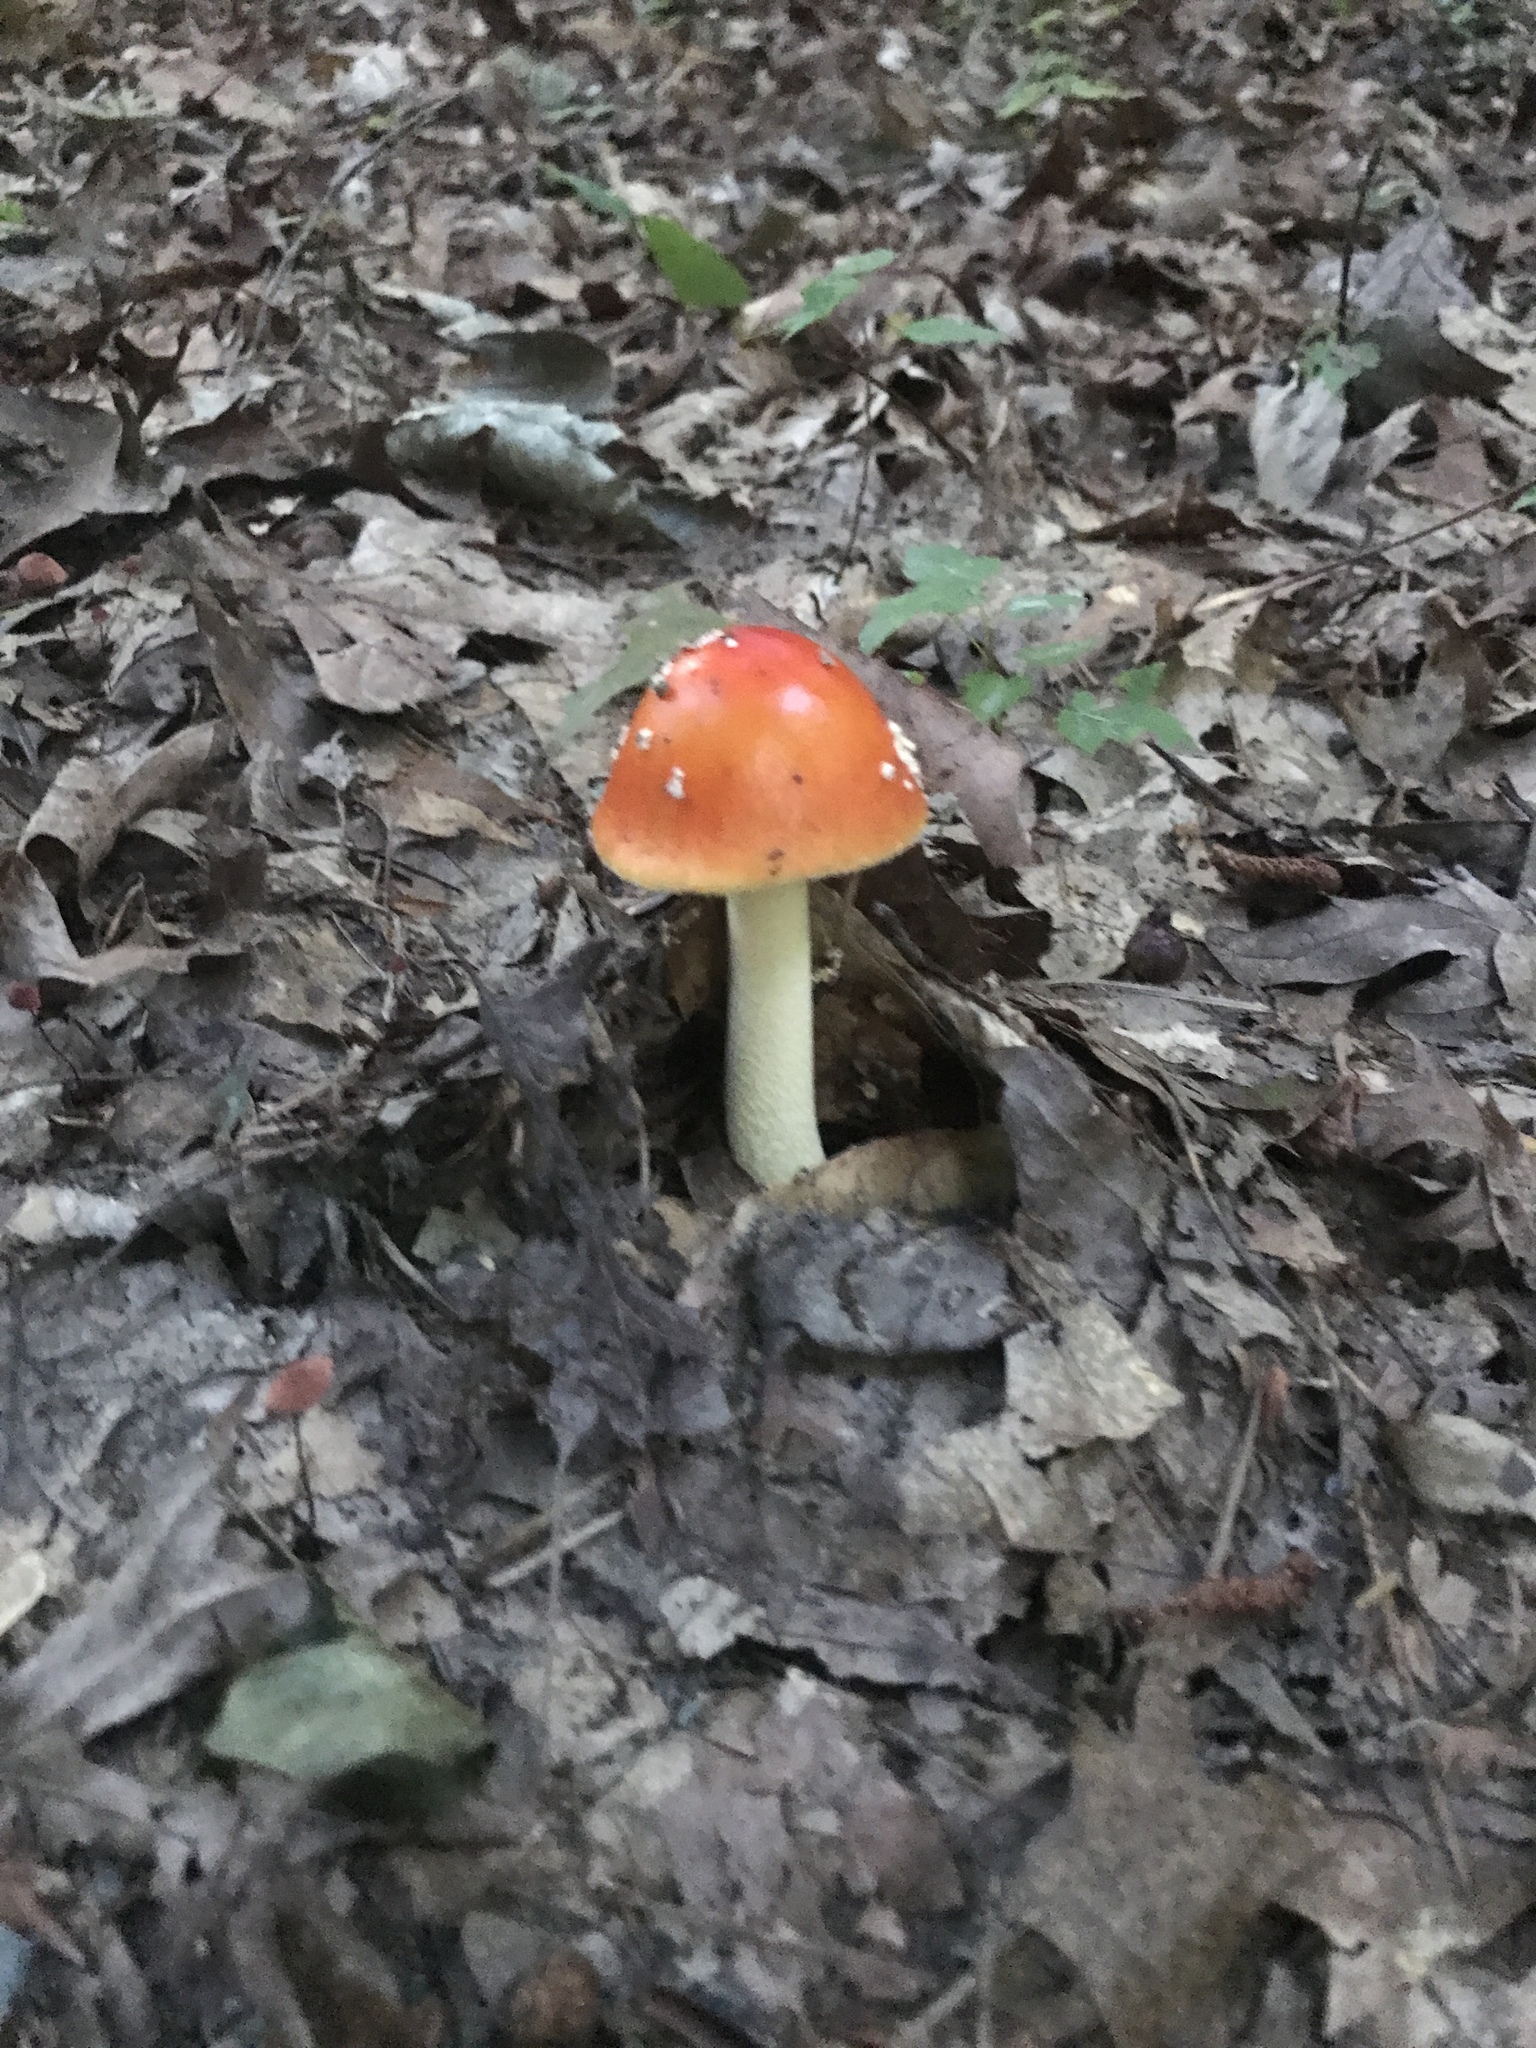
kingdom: Fungi
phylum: Basidiomycota
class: Agaricomycetes
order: Agaricales
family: Amanitaceae
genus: Amanita
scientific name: Amanita parcivolvata
